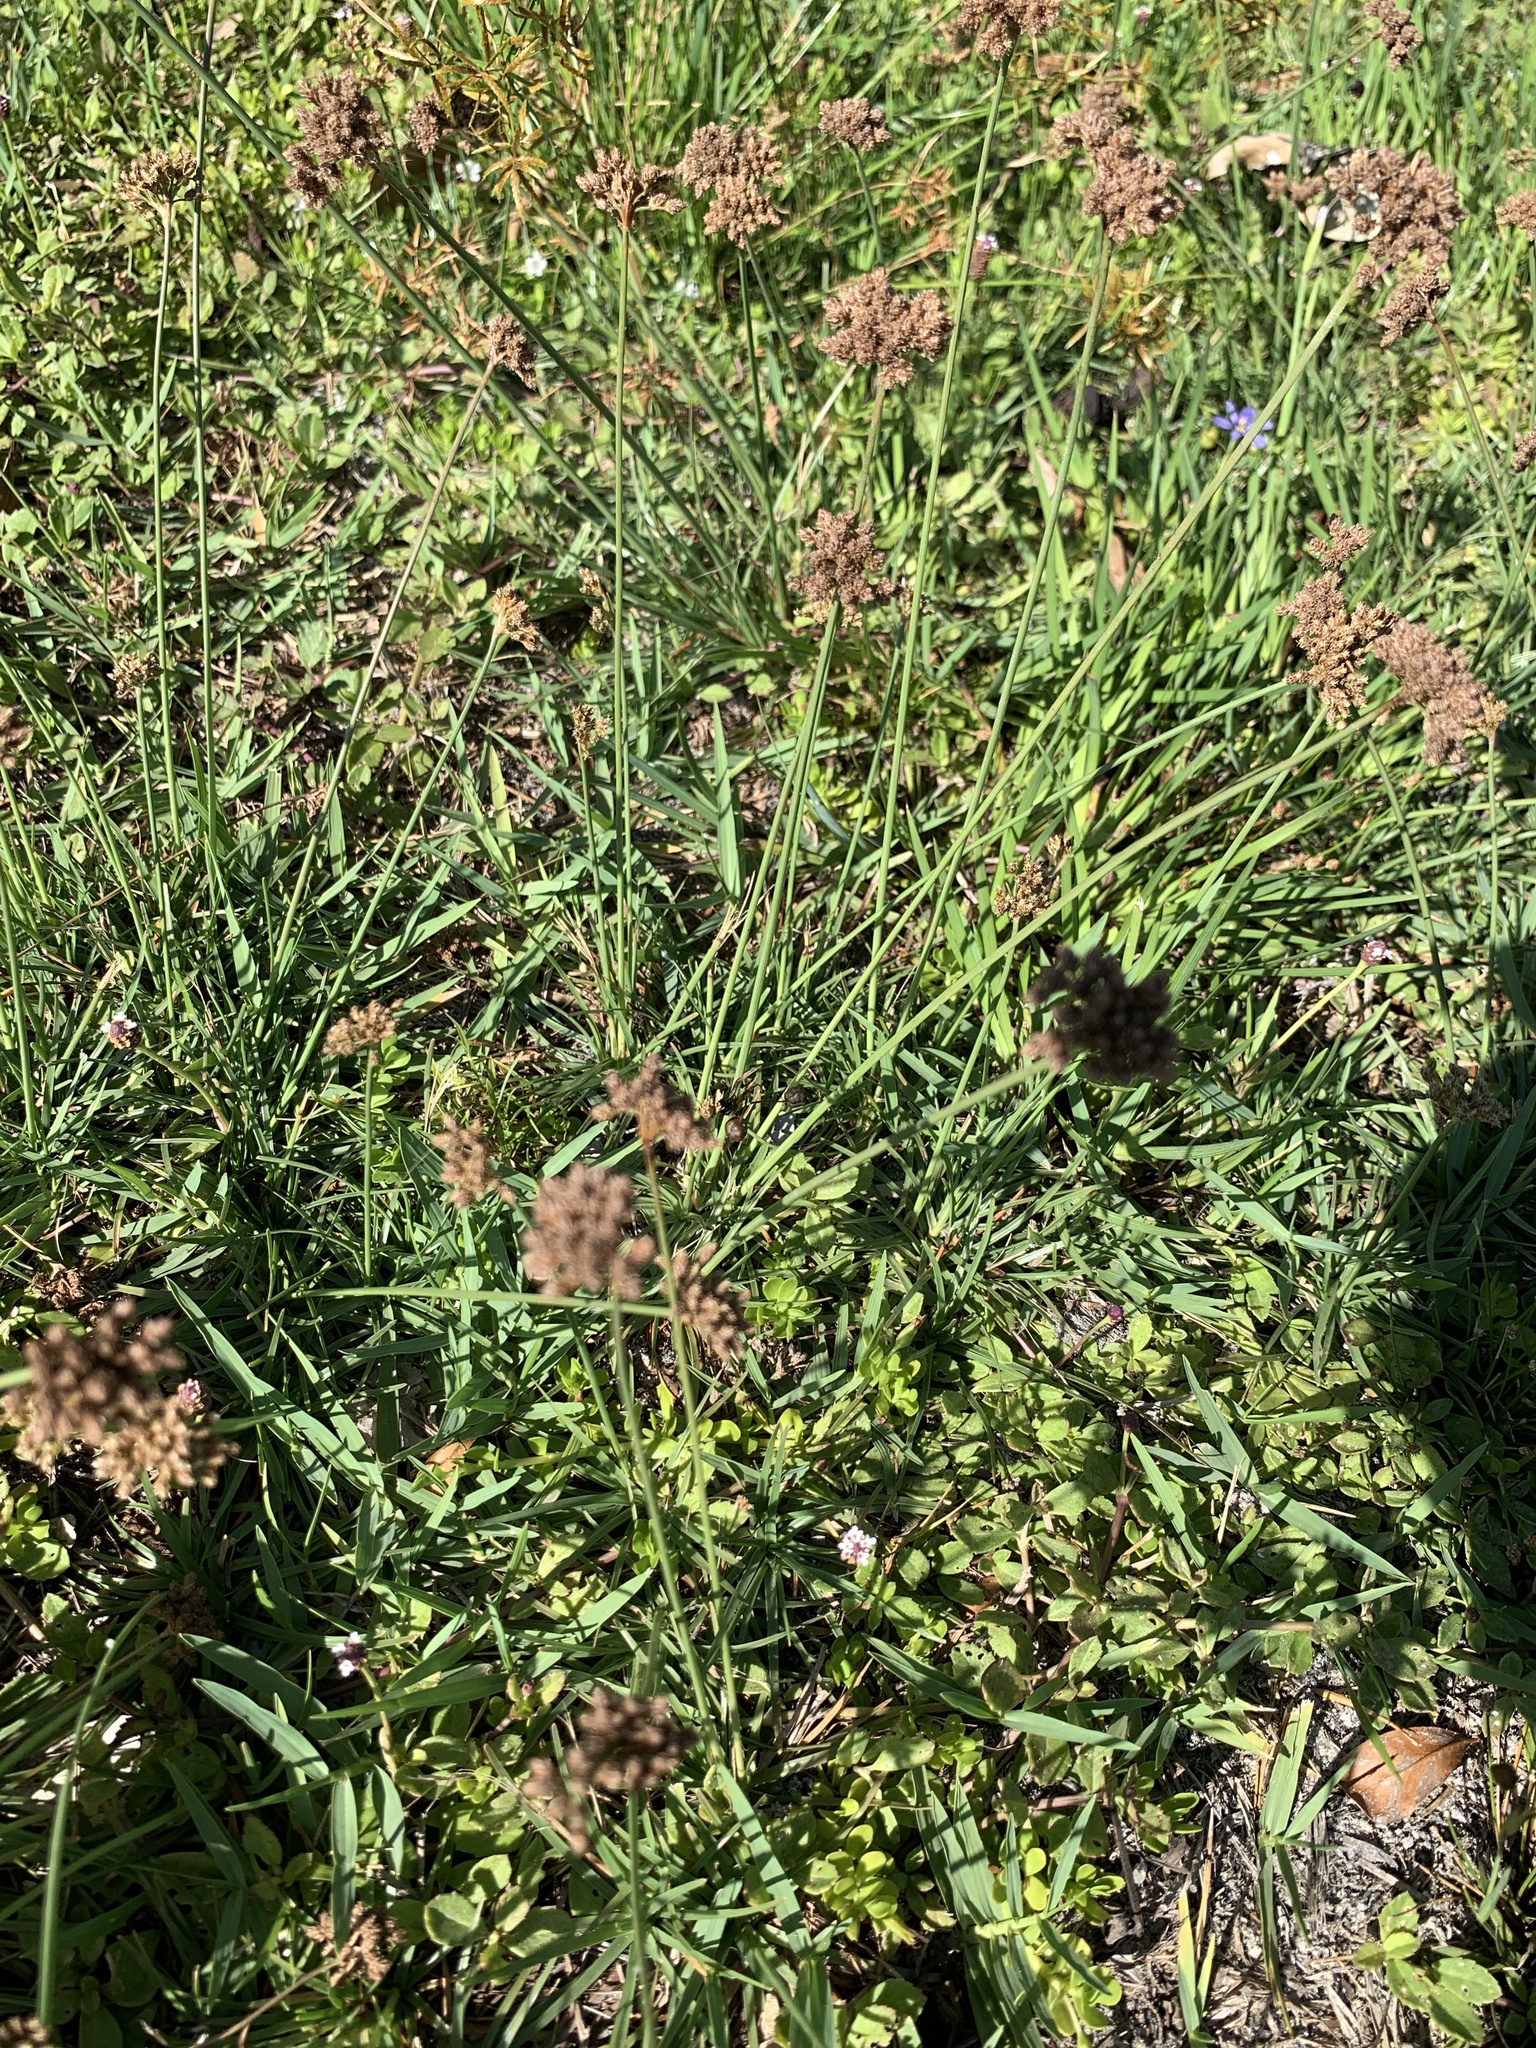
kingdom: Plantae
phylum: Tracheophyta
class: Liliopsida
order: Poales
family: Cyperaceae
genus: Fimbristylis
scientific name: Fimbristylis cymosa
